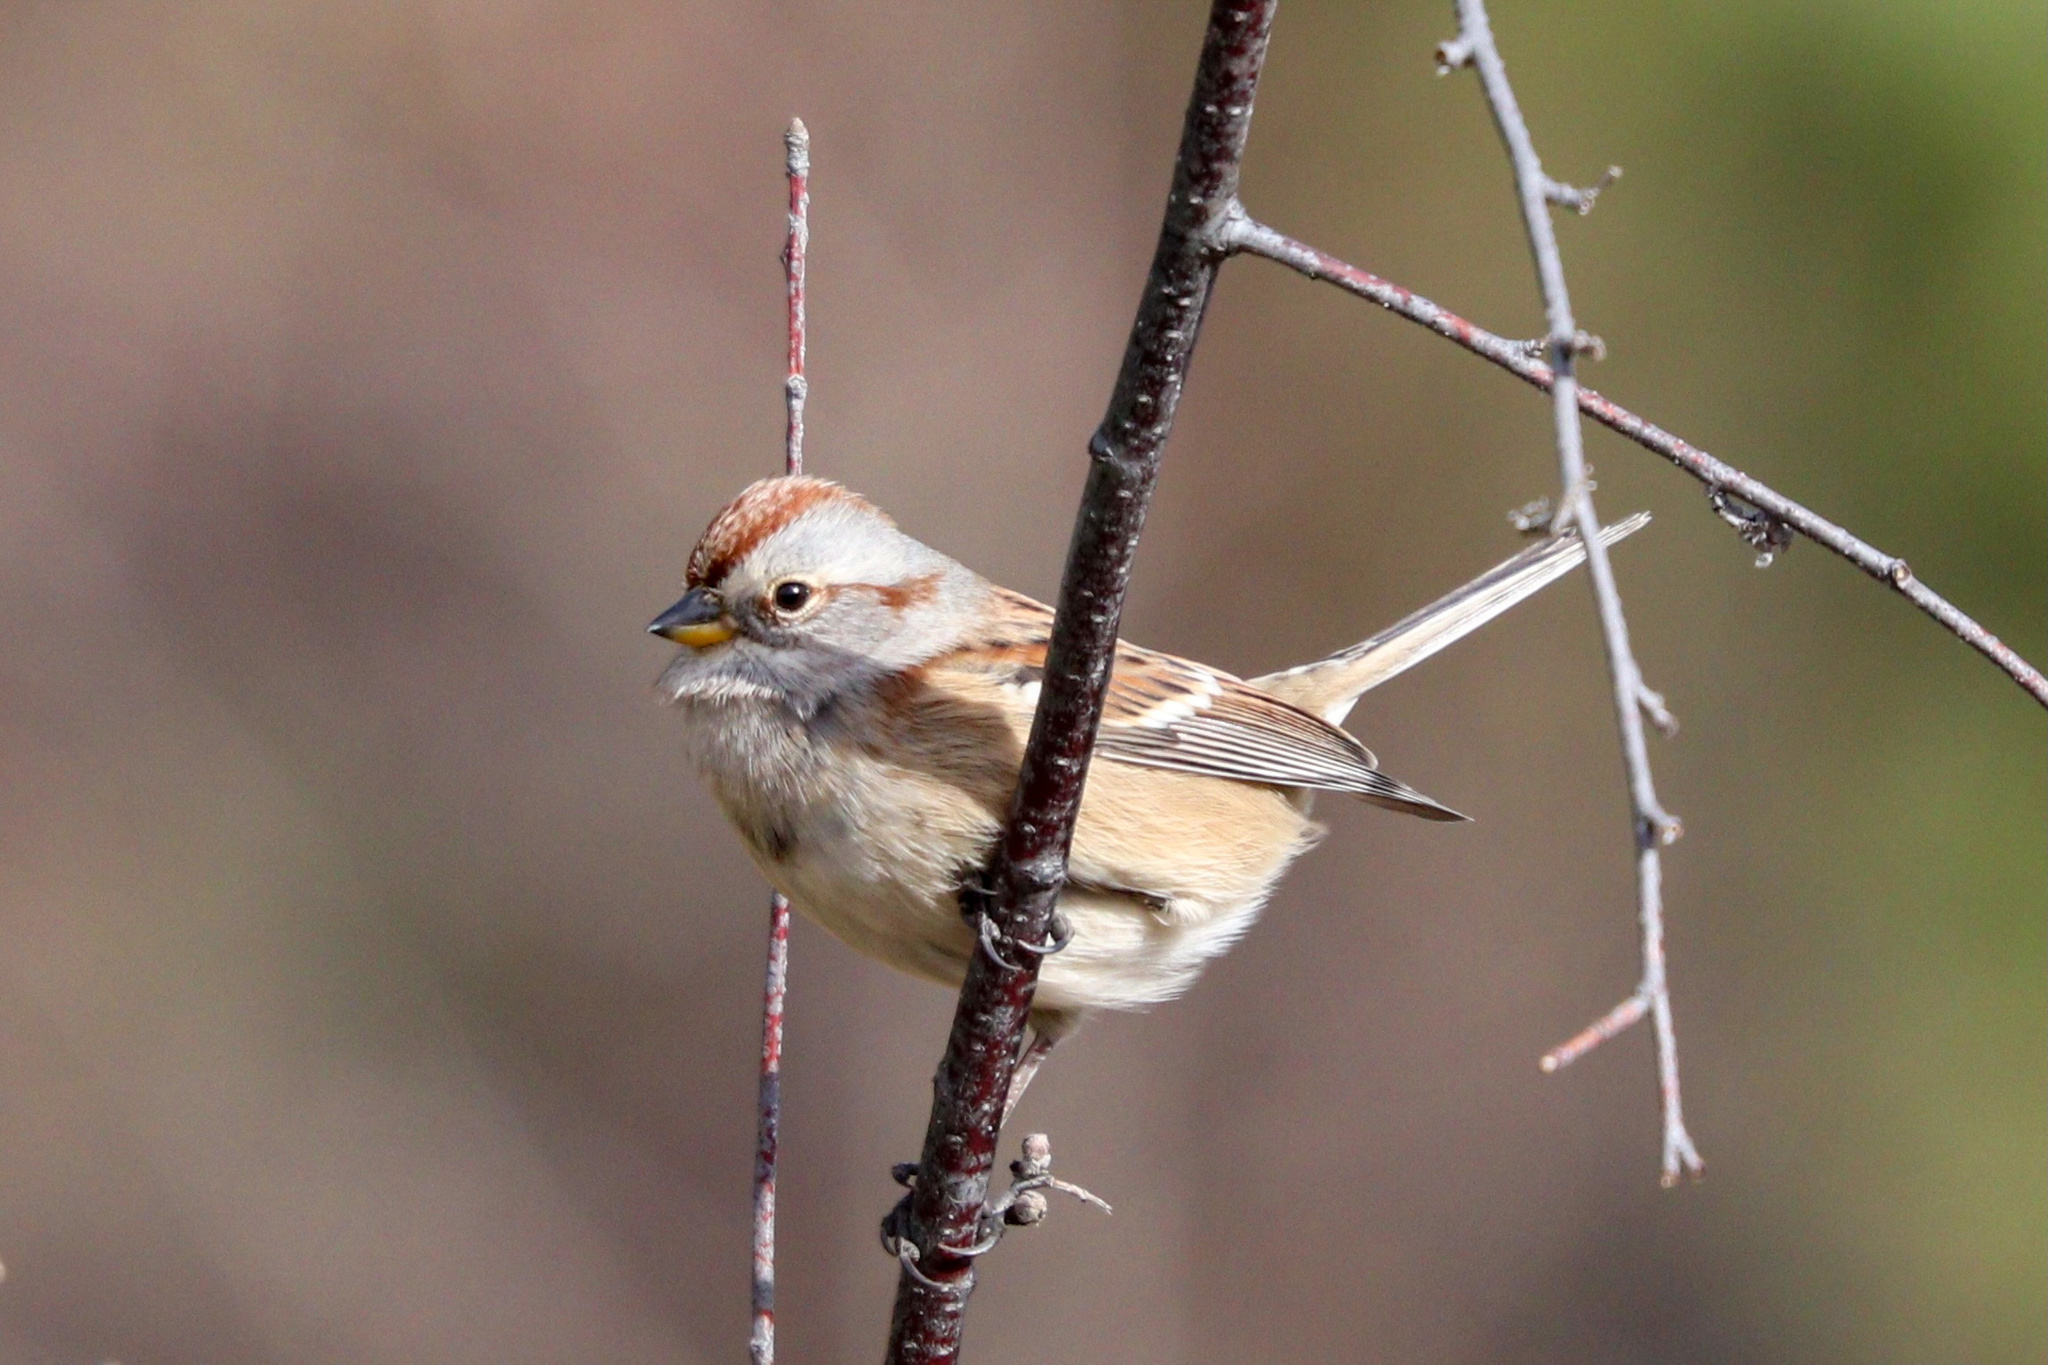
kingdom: Animalia
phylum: Chordata
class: Aves
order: Passeriformes
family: Passerellidae
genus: Spizelloides
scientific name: Spizelloides arborea
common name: American tree sparrow
